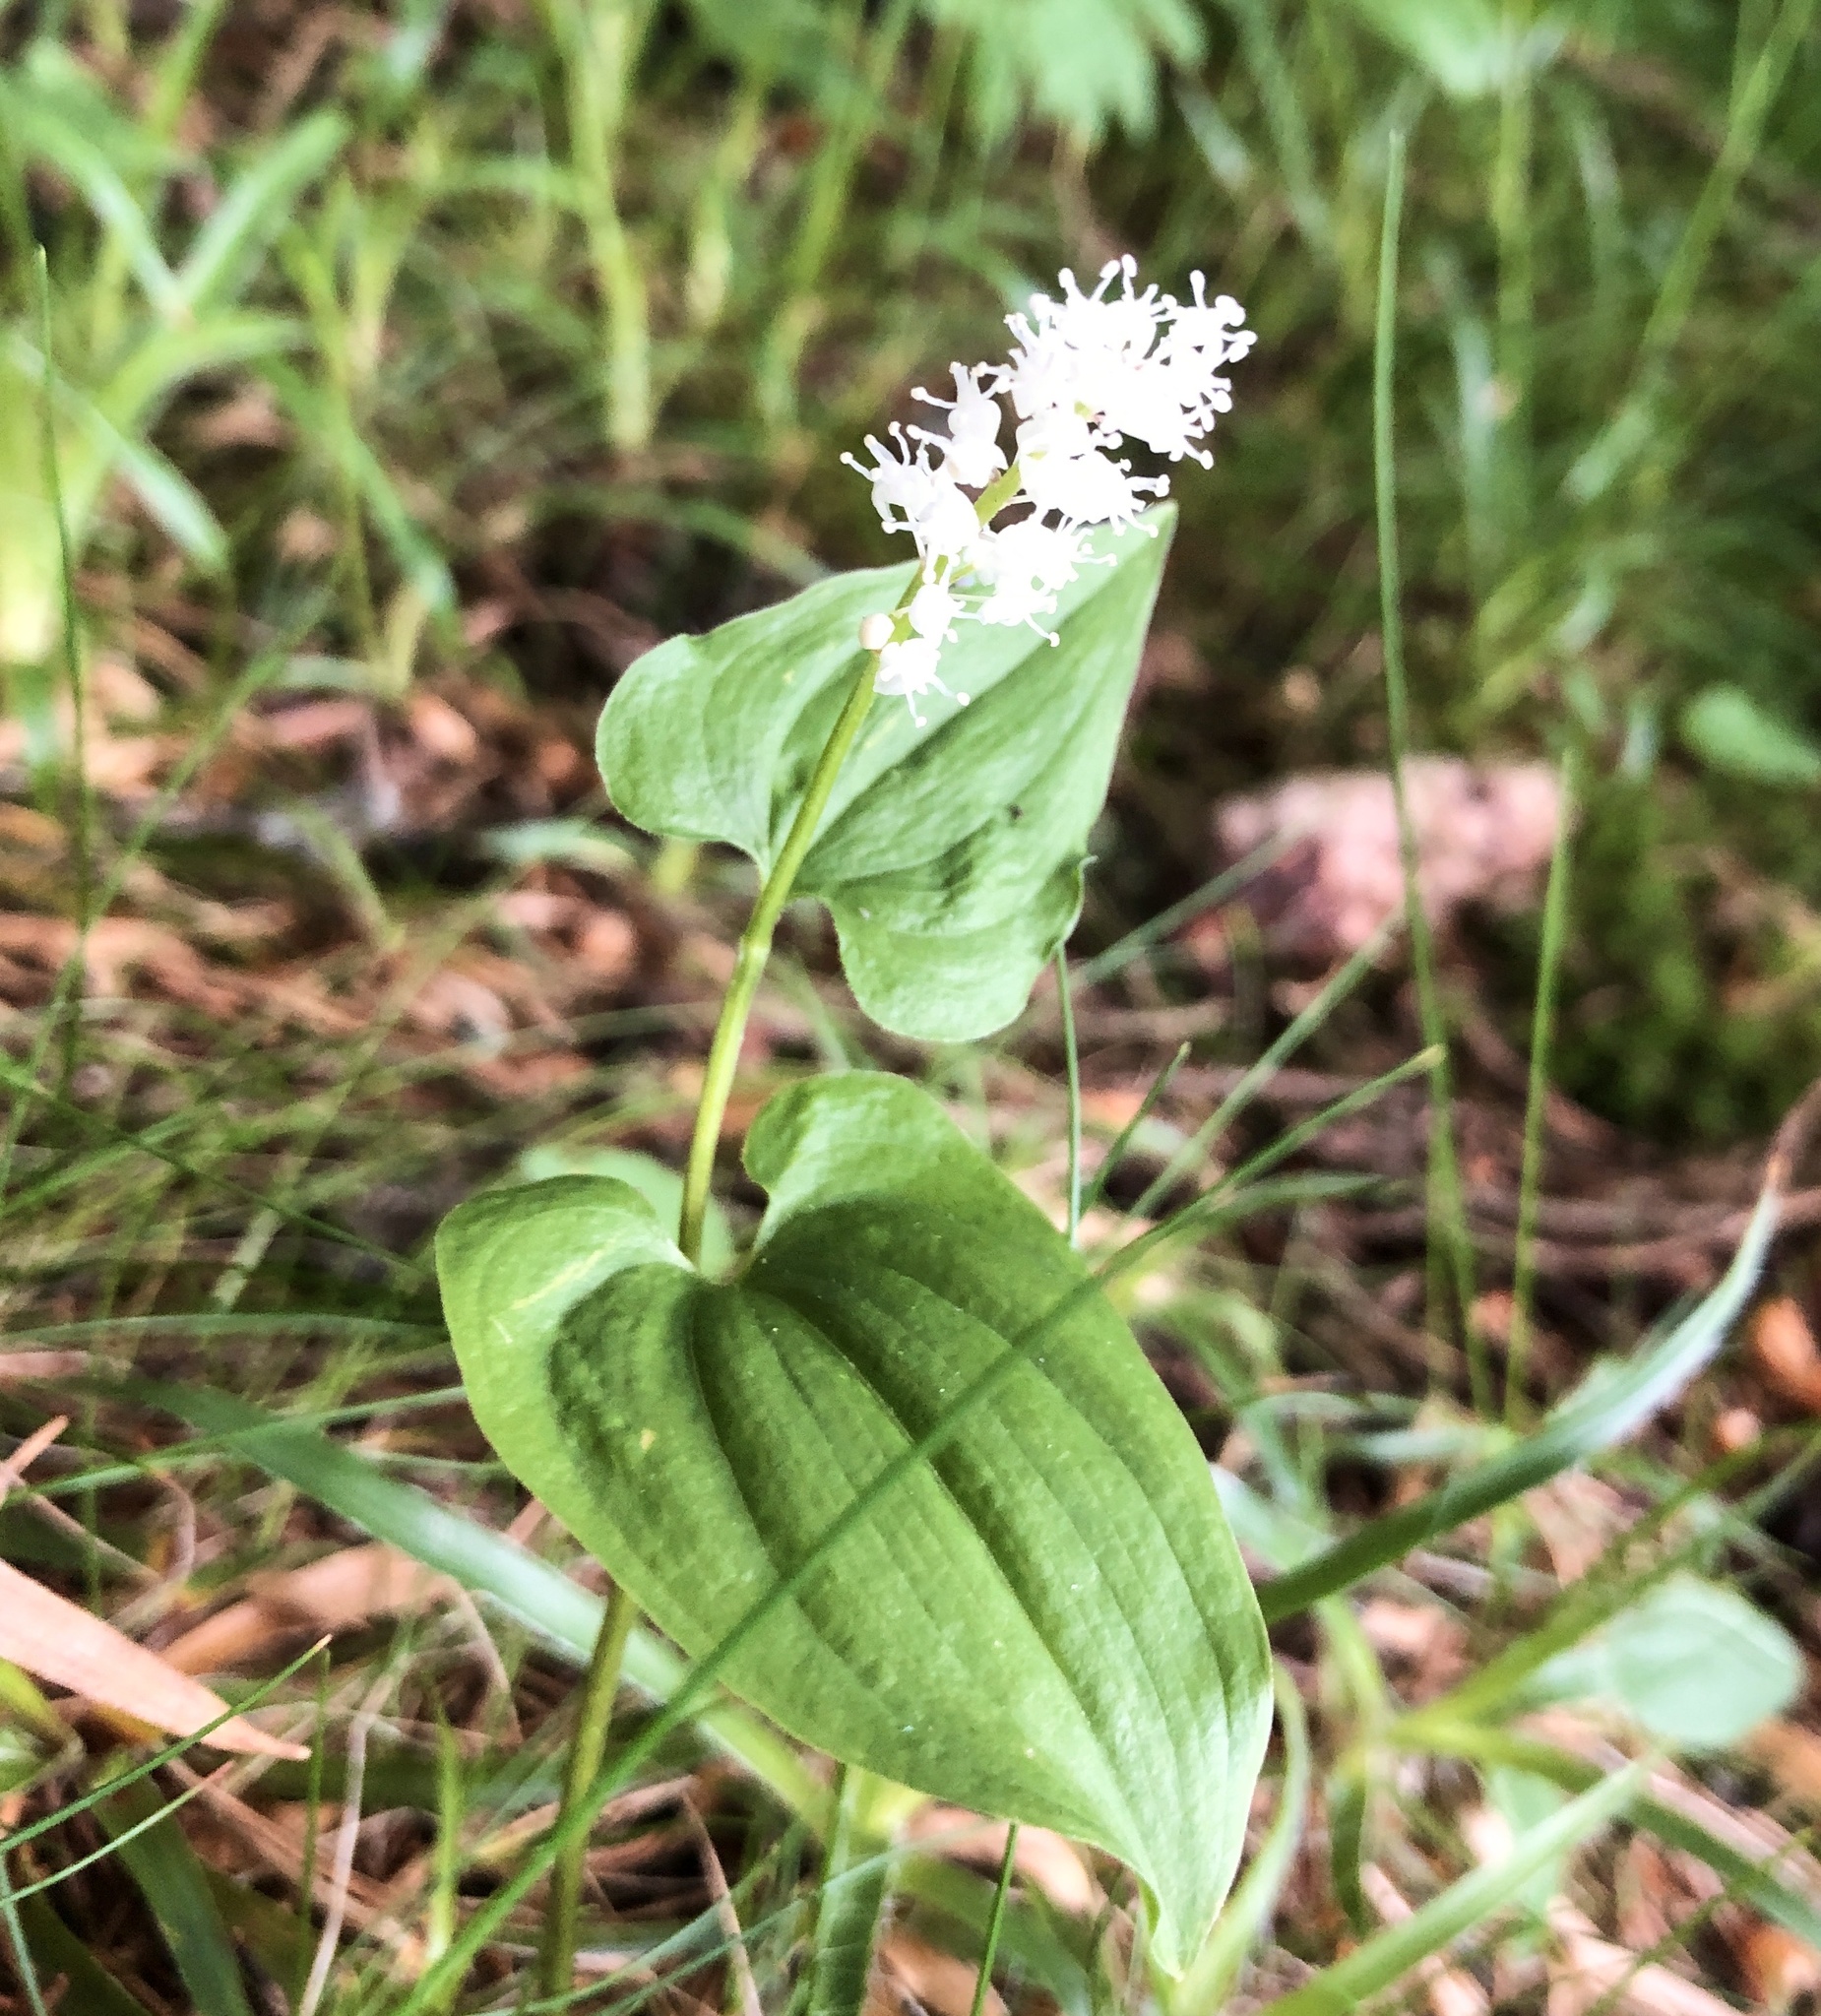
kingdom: Plantae
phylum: Tracheophyta
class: Liliopsida
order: Asparagales
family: Asparagaceae
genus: Maianthemum
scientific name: Maianthemum bifolium
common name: May lily
